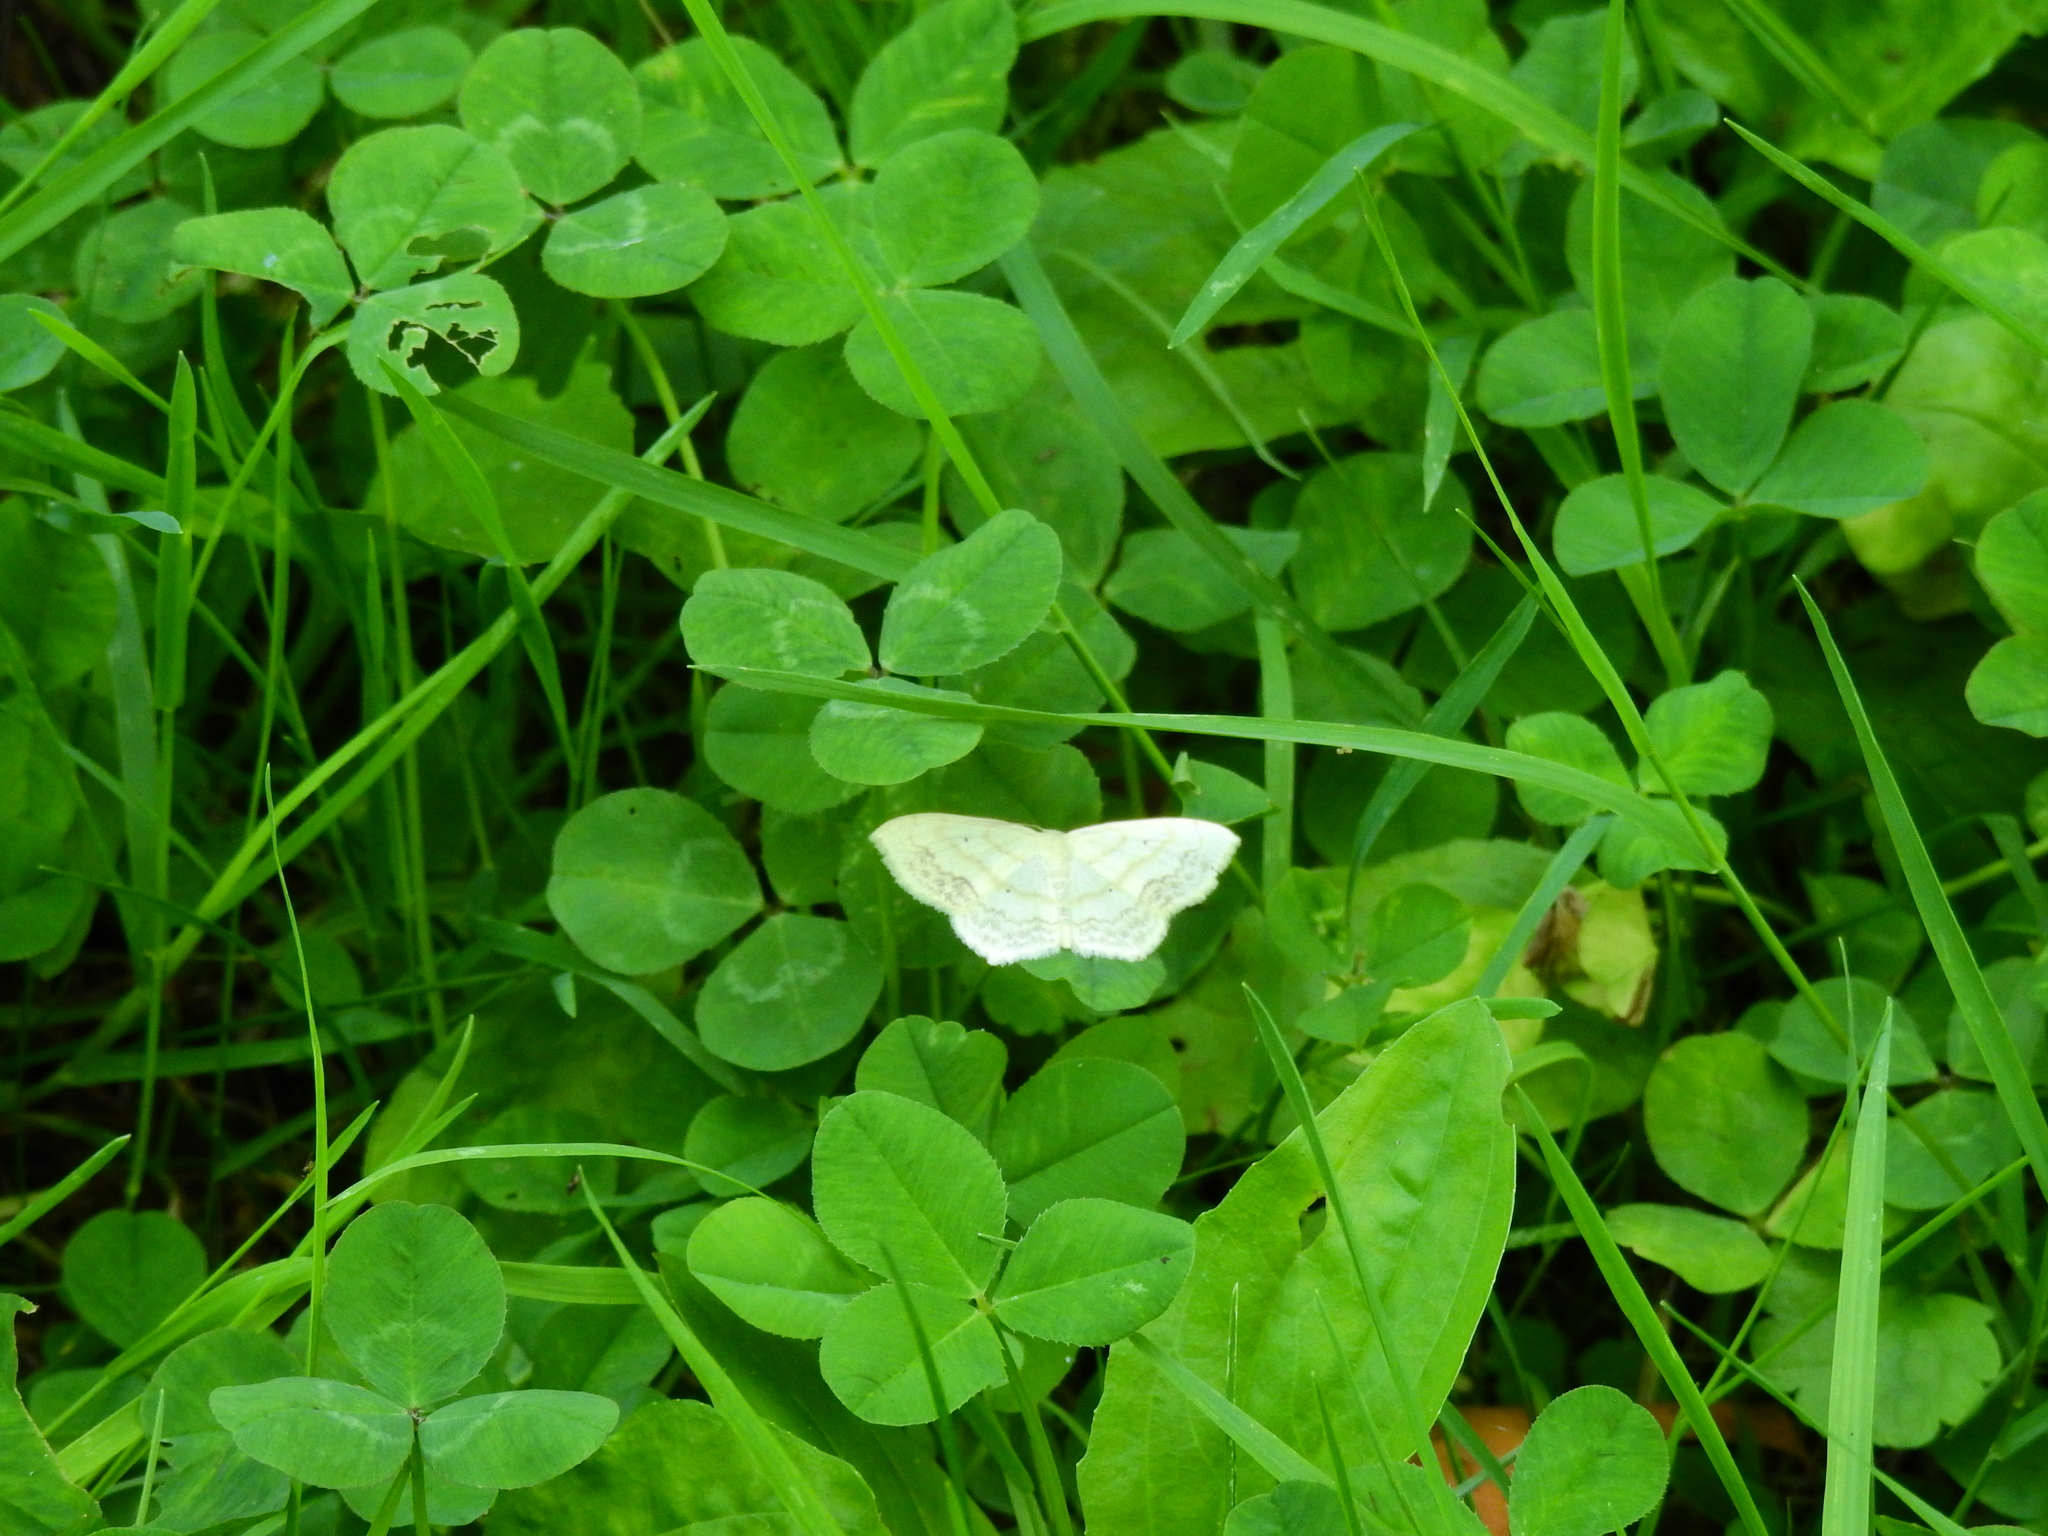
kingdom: Animalia
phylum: Arthropoda
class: Insecta
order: Lepidoptera
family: Geometridae
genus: Scopula
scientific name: Scopula limboundata
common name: Large lace border
